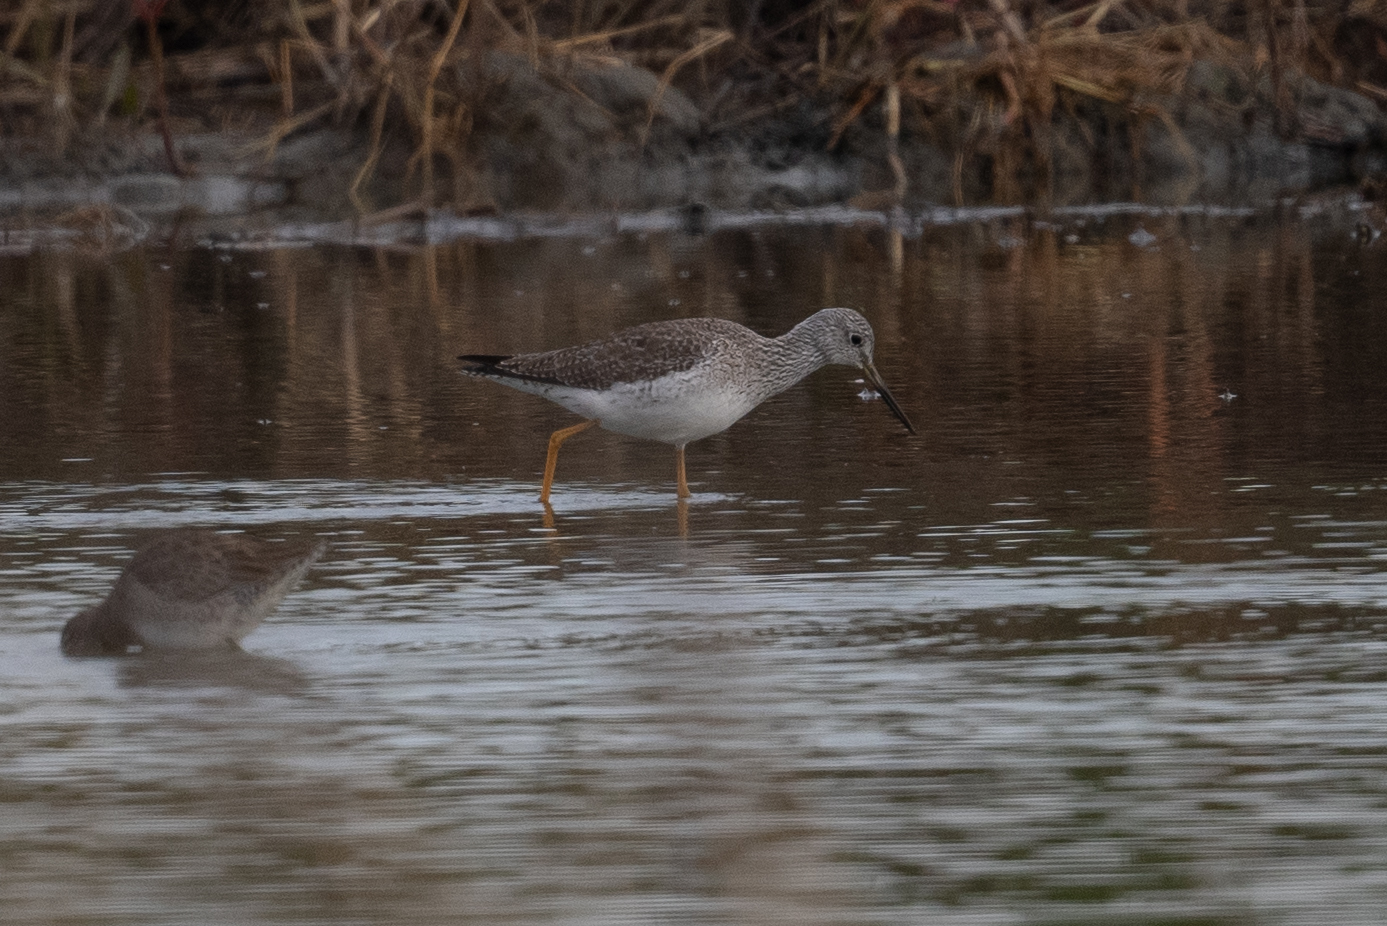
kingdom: Animalia
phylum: Chordata
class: Aves
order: Charadriiformes
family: Scolopacidae
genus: Tringa
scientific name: Tringa melanoleuca
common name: Greater yellowlegs
